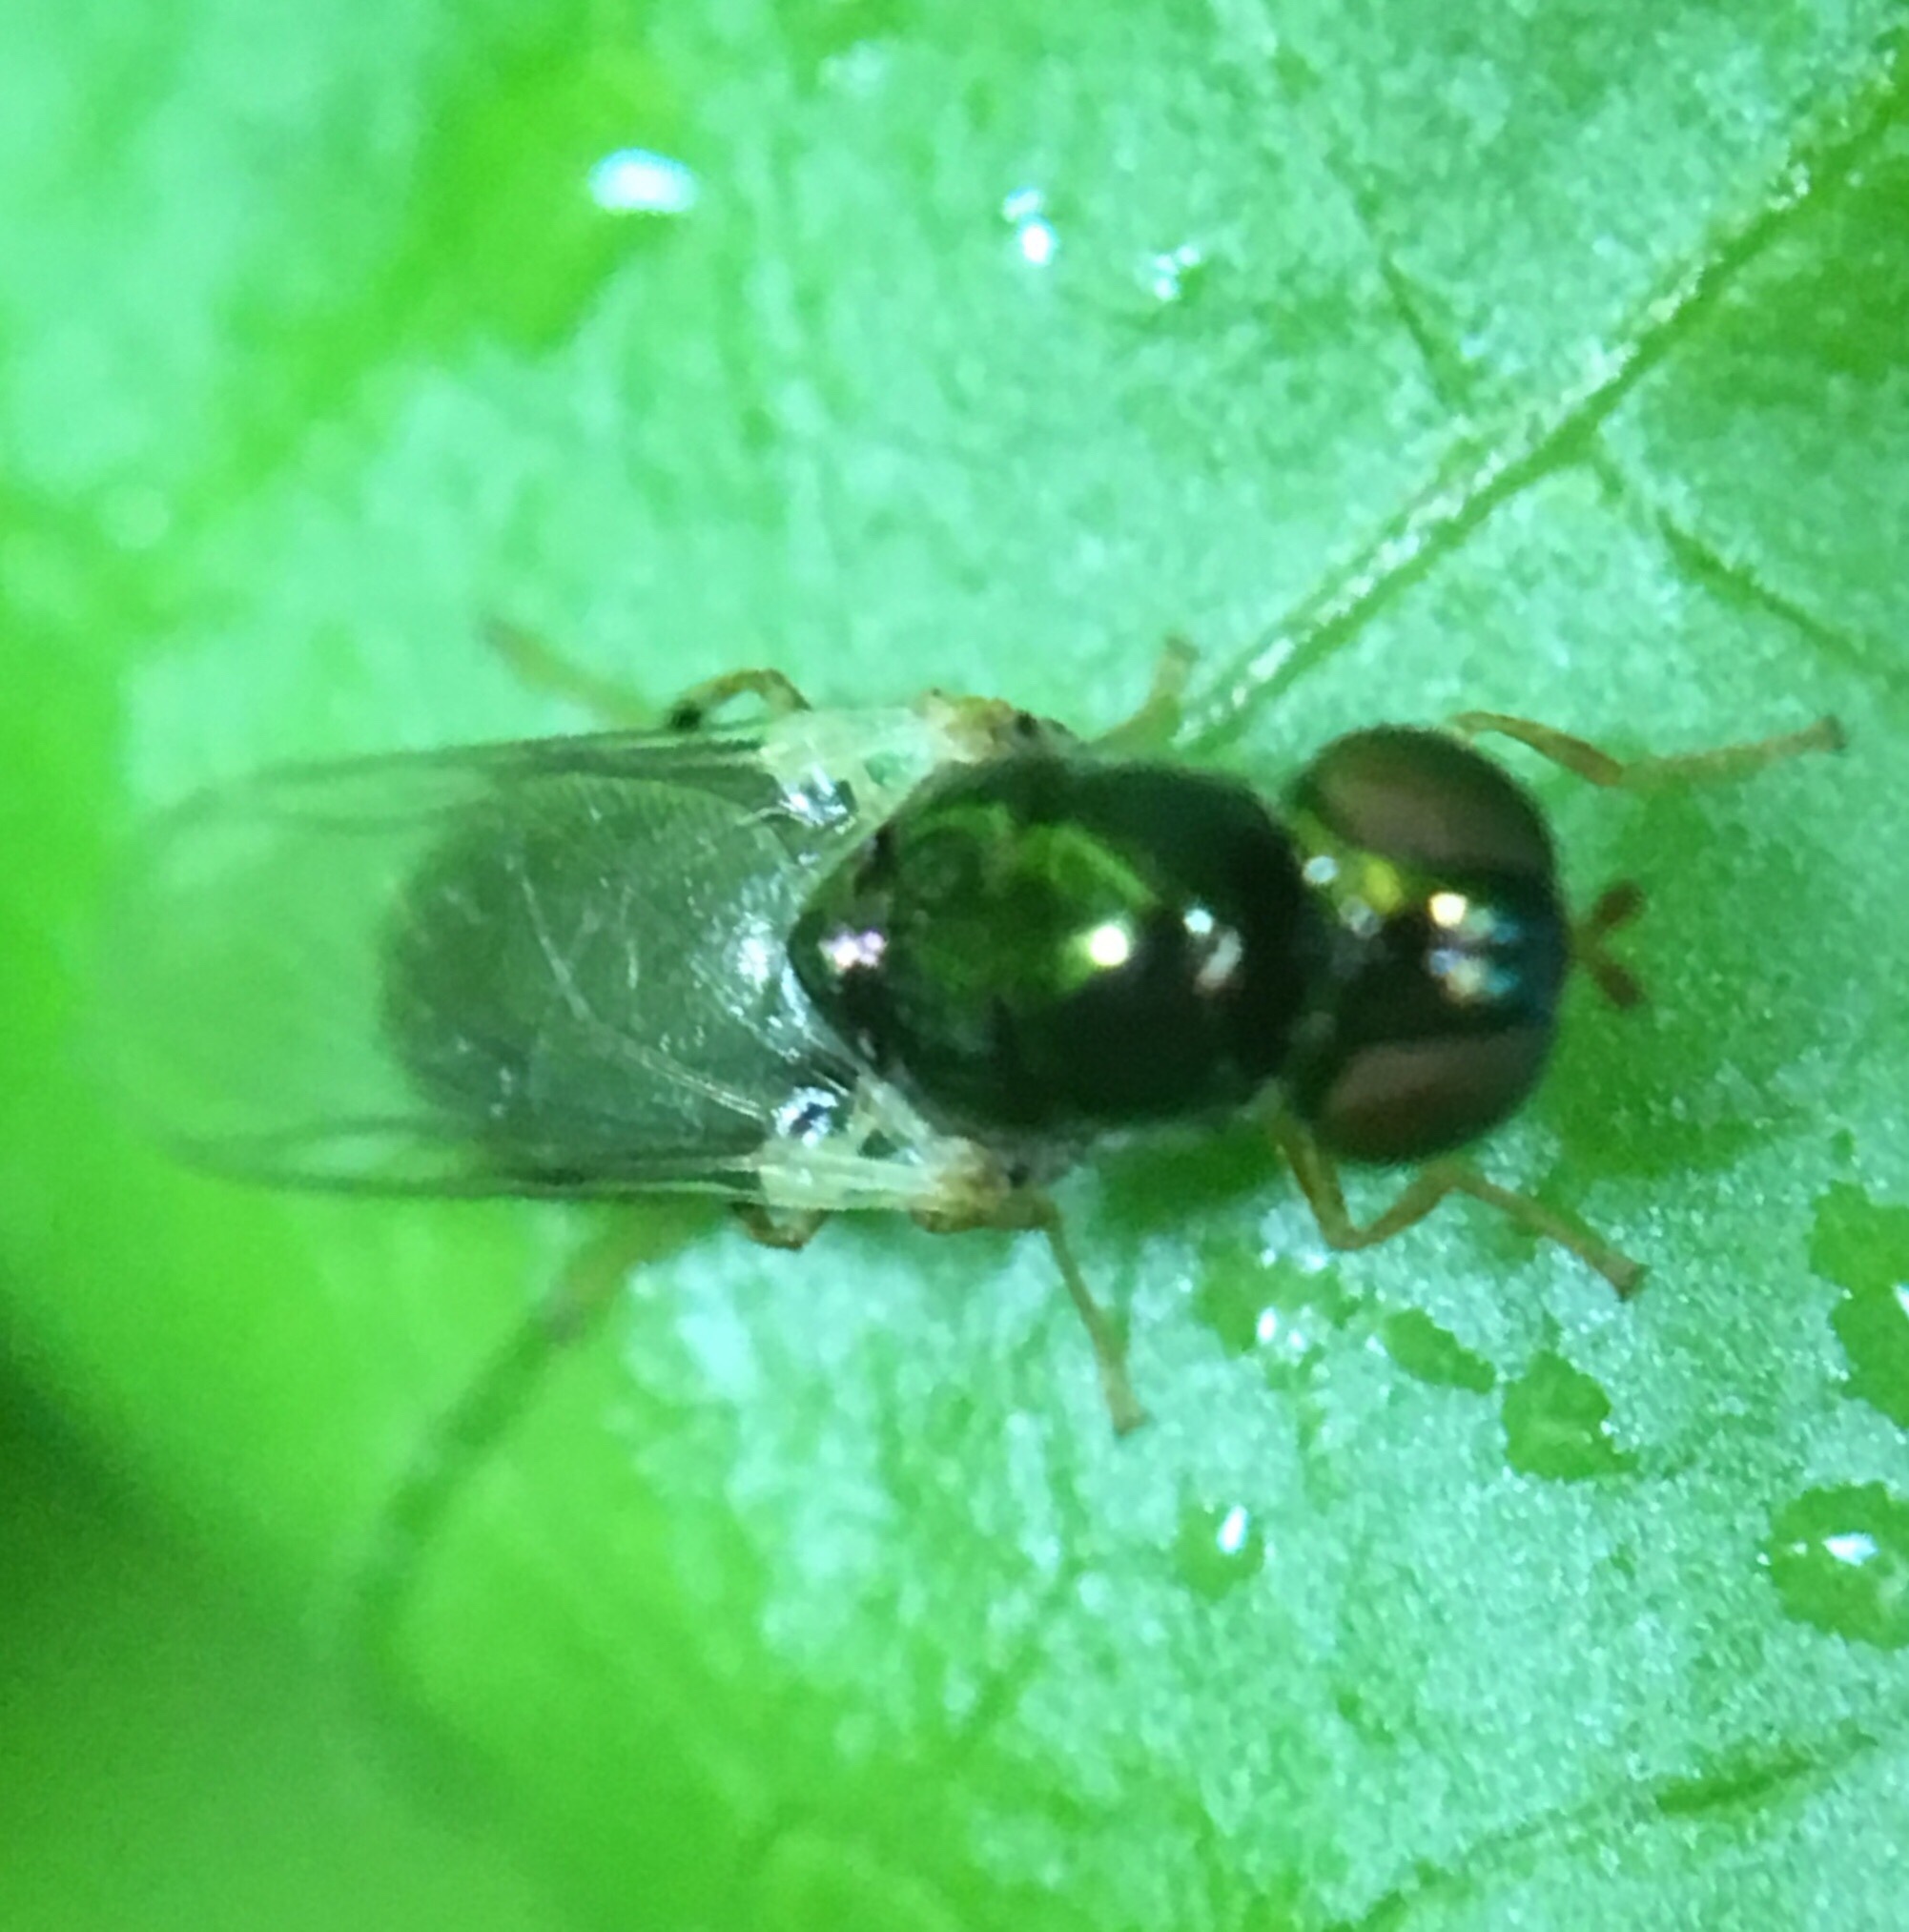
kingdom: Animalia
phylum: Arthropoda
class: Insecta
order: Diptera
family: Stratiomyidae
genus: Microchrysa
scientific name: Microchrysa flaviventris
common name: Soldier fly
